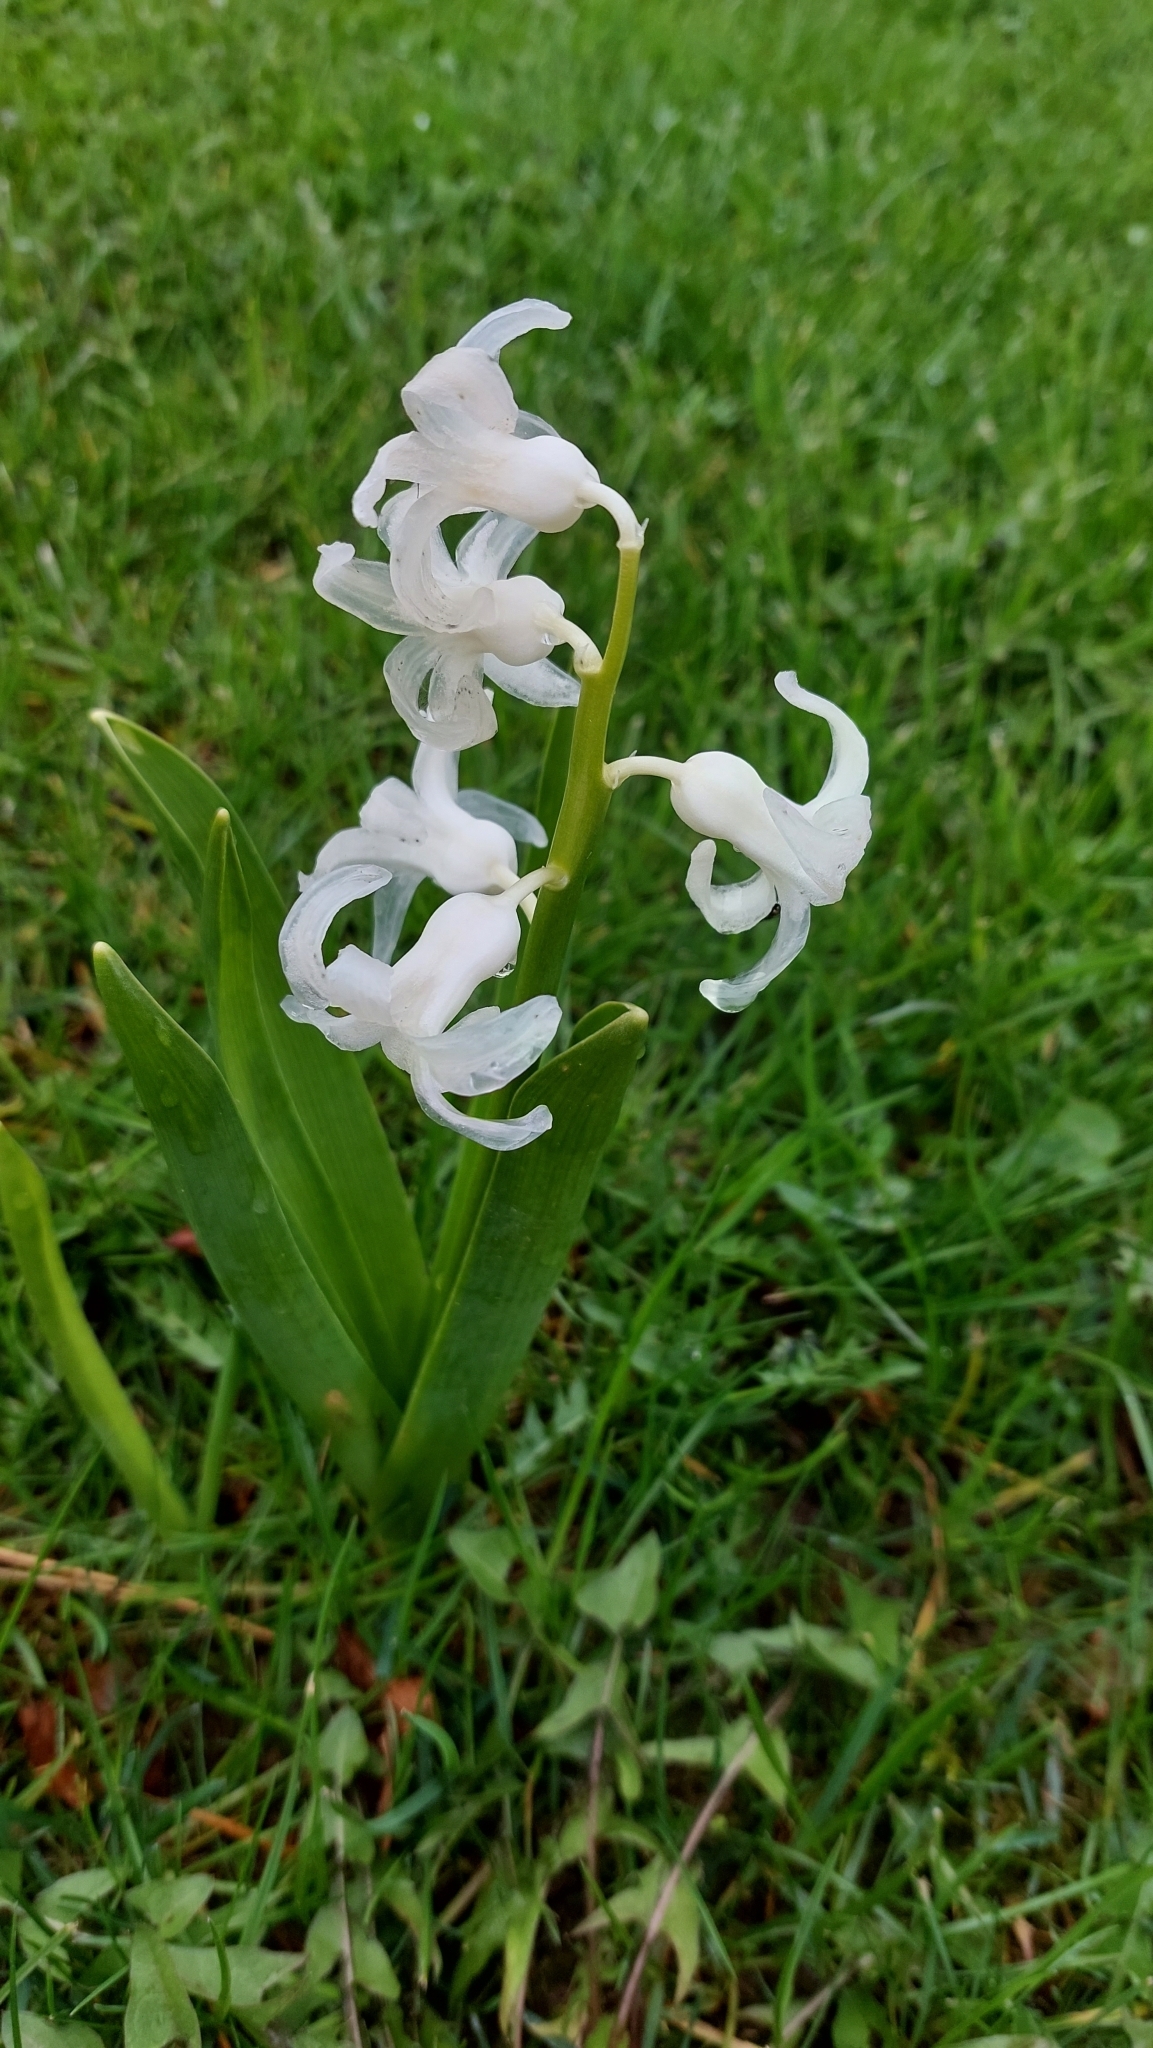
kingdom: Plantae
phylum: Tracheophyta
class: Liliopsida
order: Asparagales
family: Asparagaceae
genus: Hyacinthus
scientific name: Hyacinthus orientalis
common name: Hyacinth
